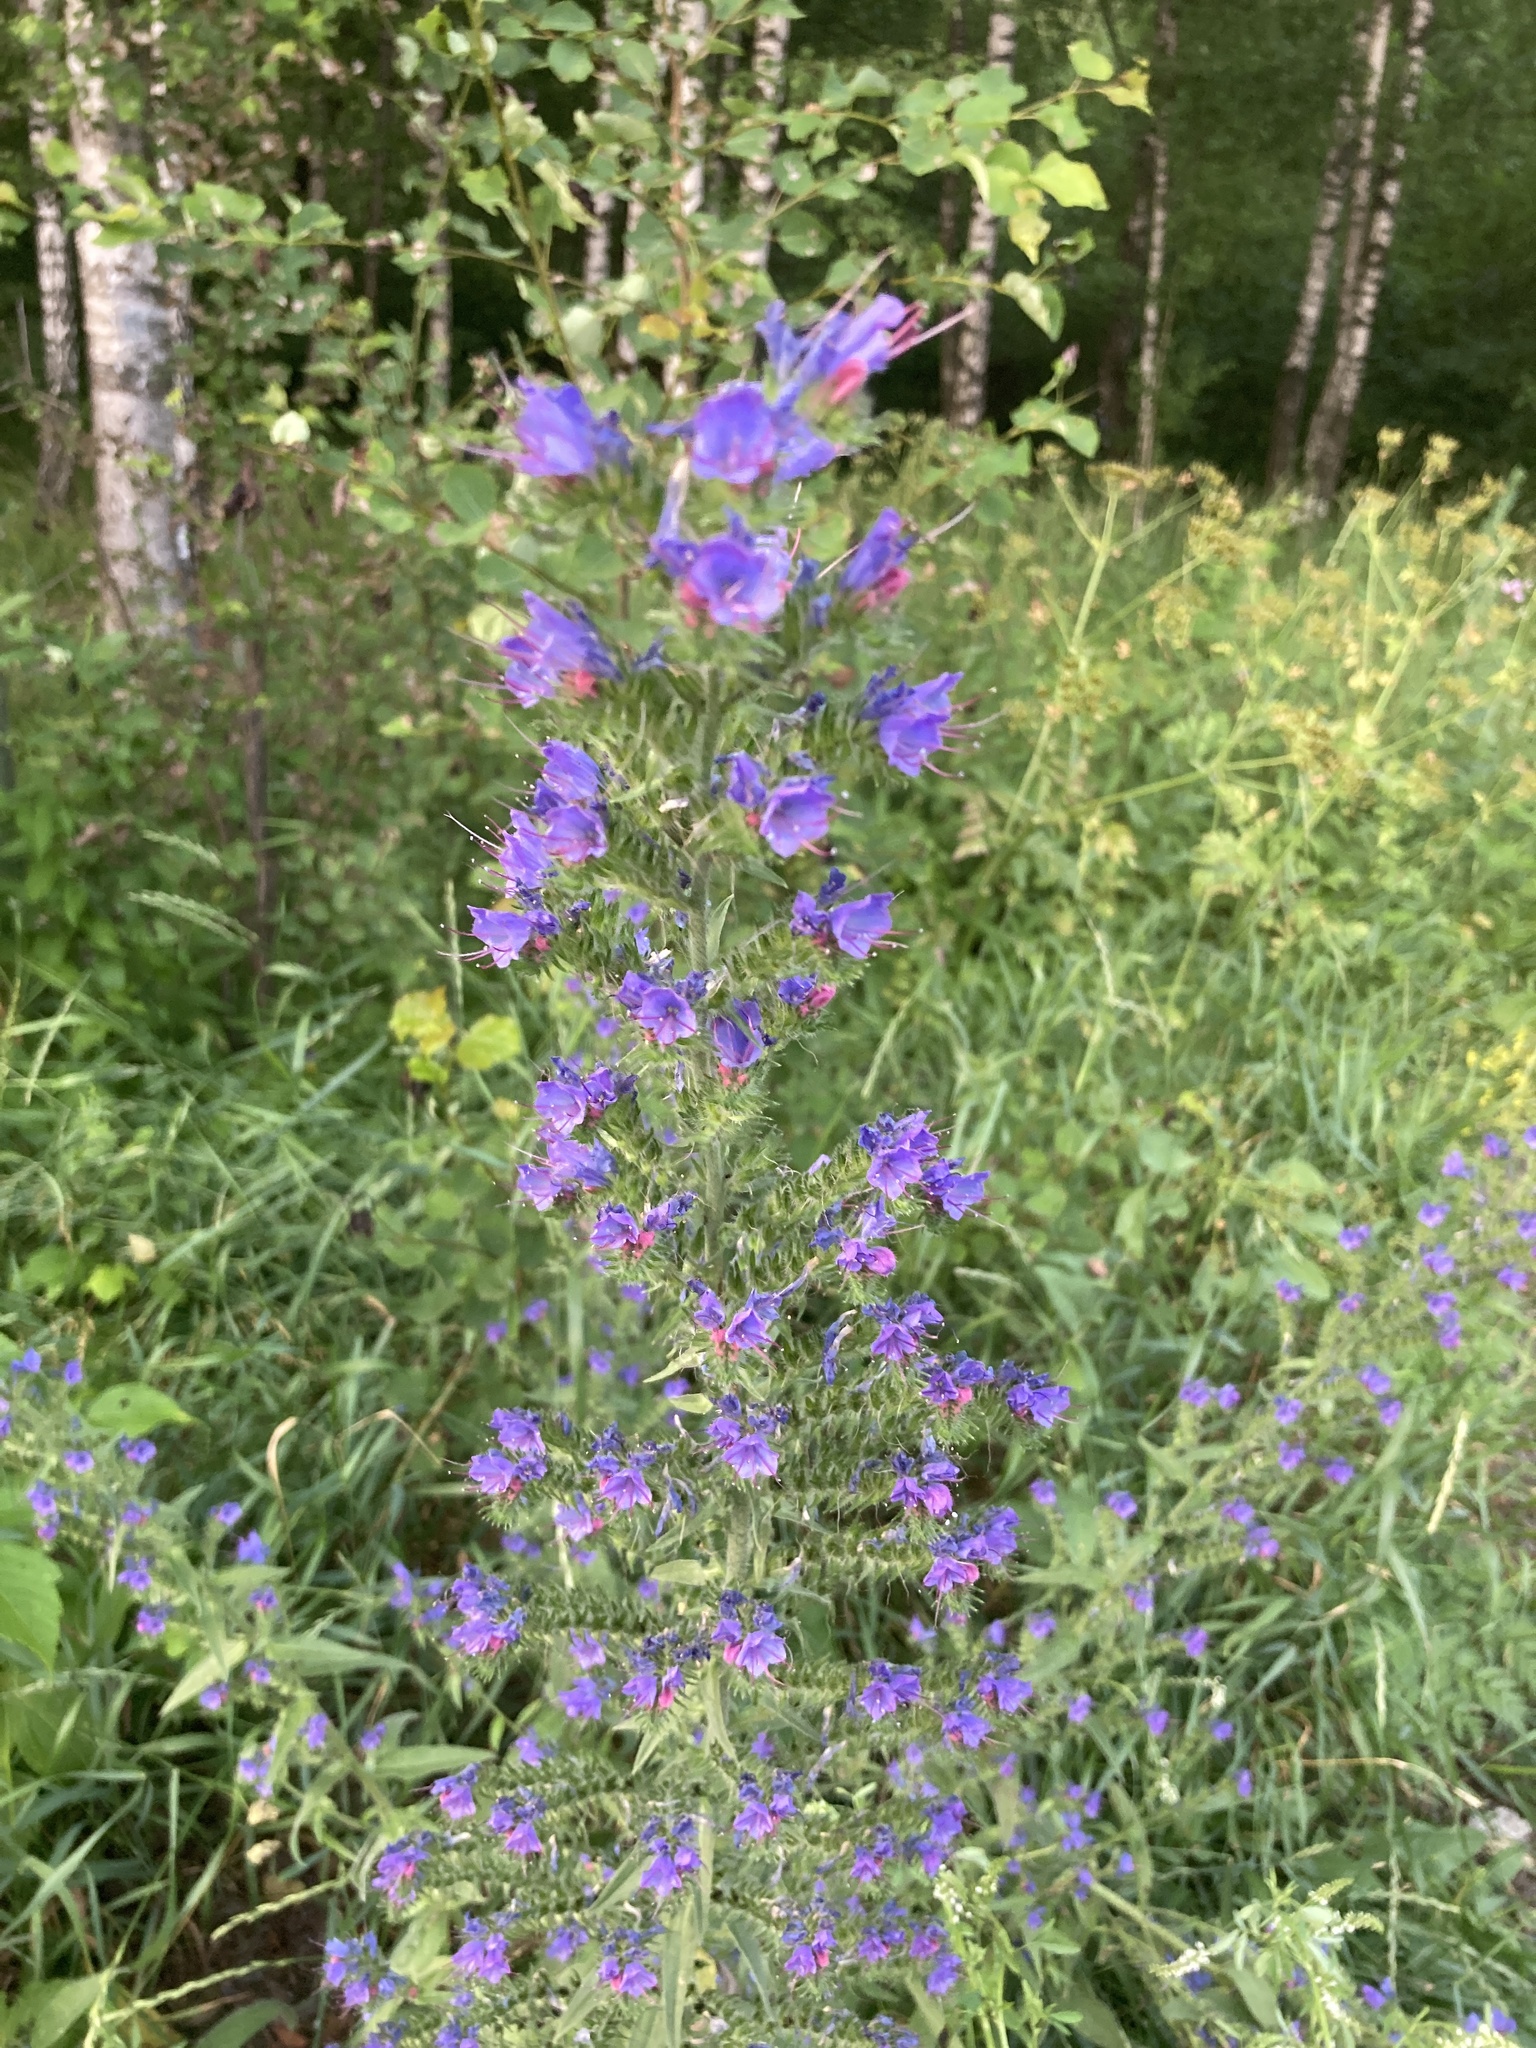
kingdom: Plantae
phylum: Tracheophyta
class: Magnoliopsida
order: Boraginales
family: Boraginaceae
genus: Echium
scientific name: Echium vulgare
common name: Common viper's bugloss
